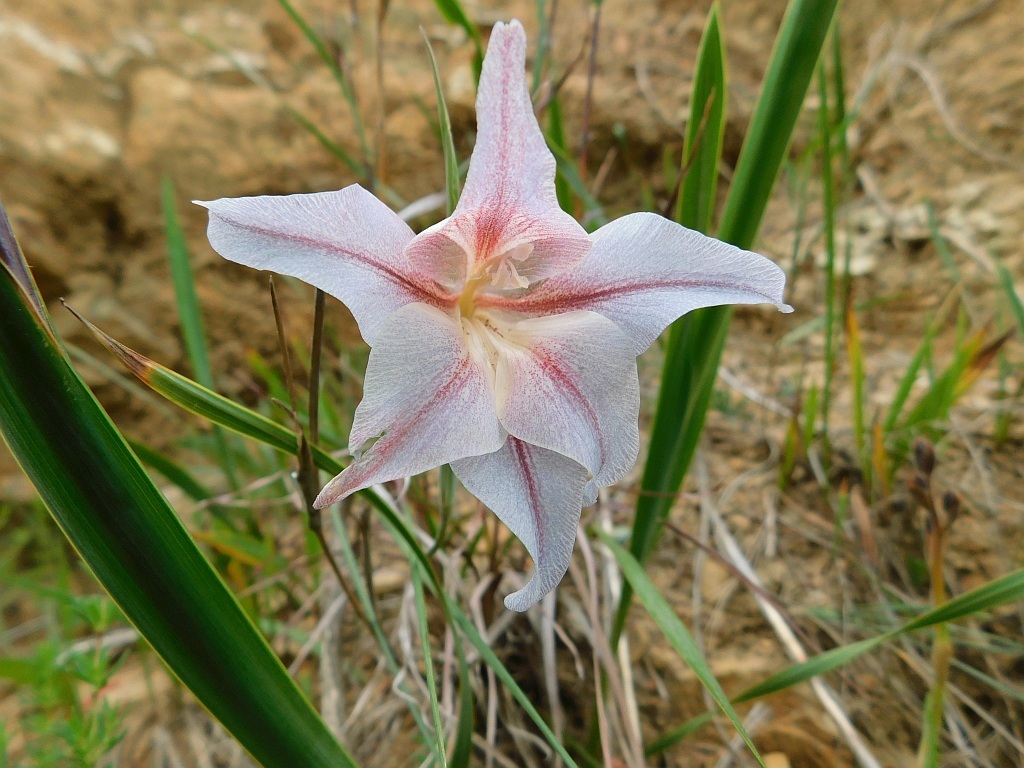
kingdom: Plantae
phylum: Tracheophyta
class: Liliopsida
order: Asparagales
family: Iridaceae
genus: Gladiolus
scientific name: Gladiolus liliaceus
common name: Large brown afrikaner
